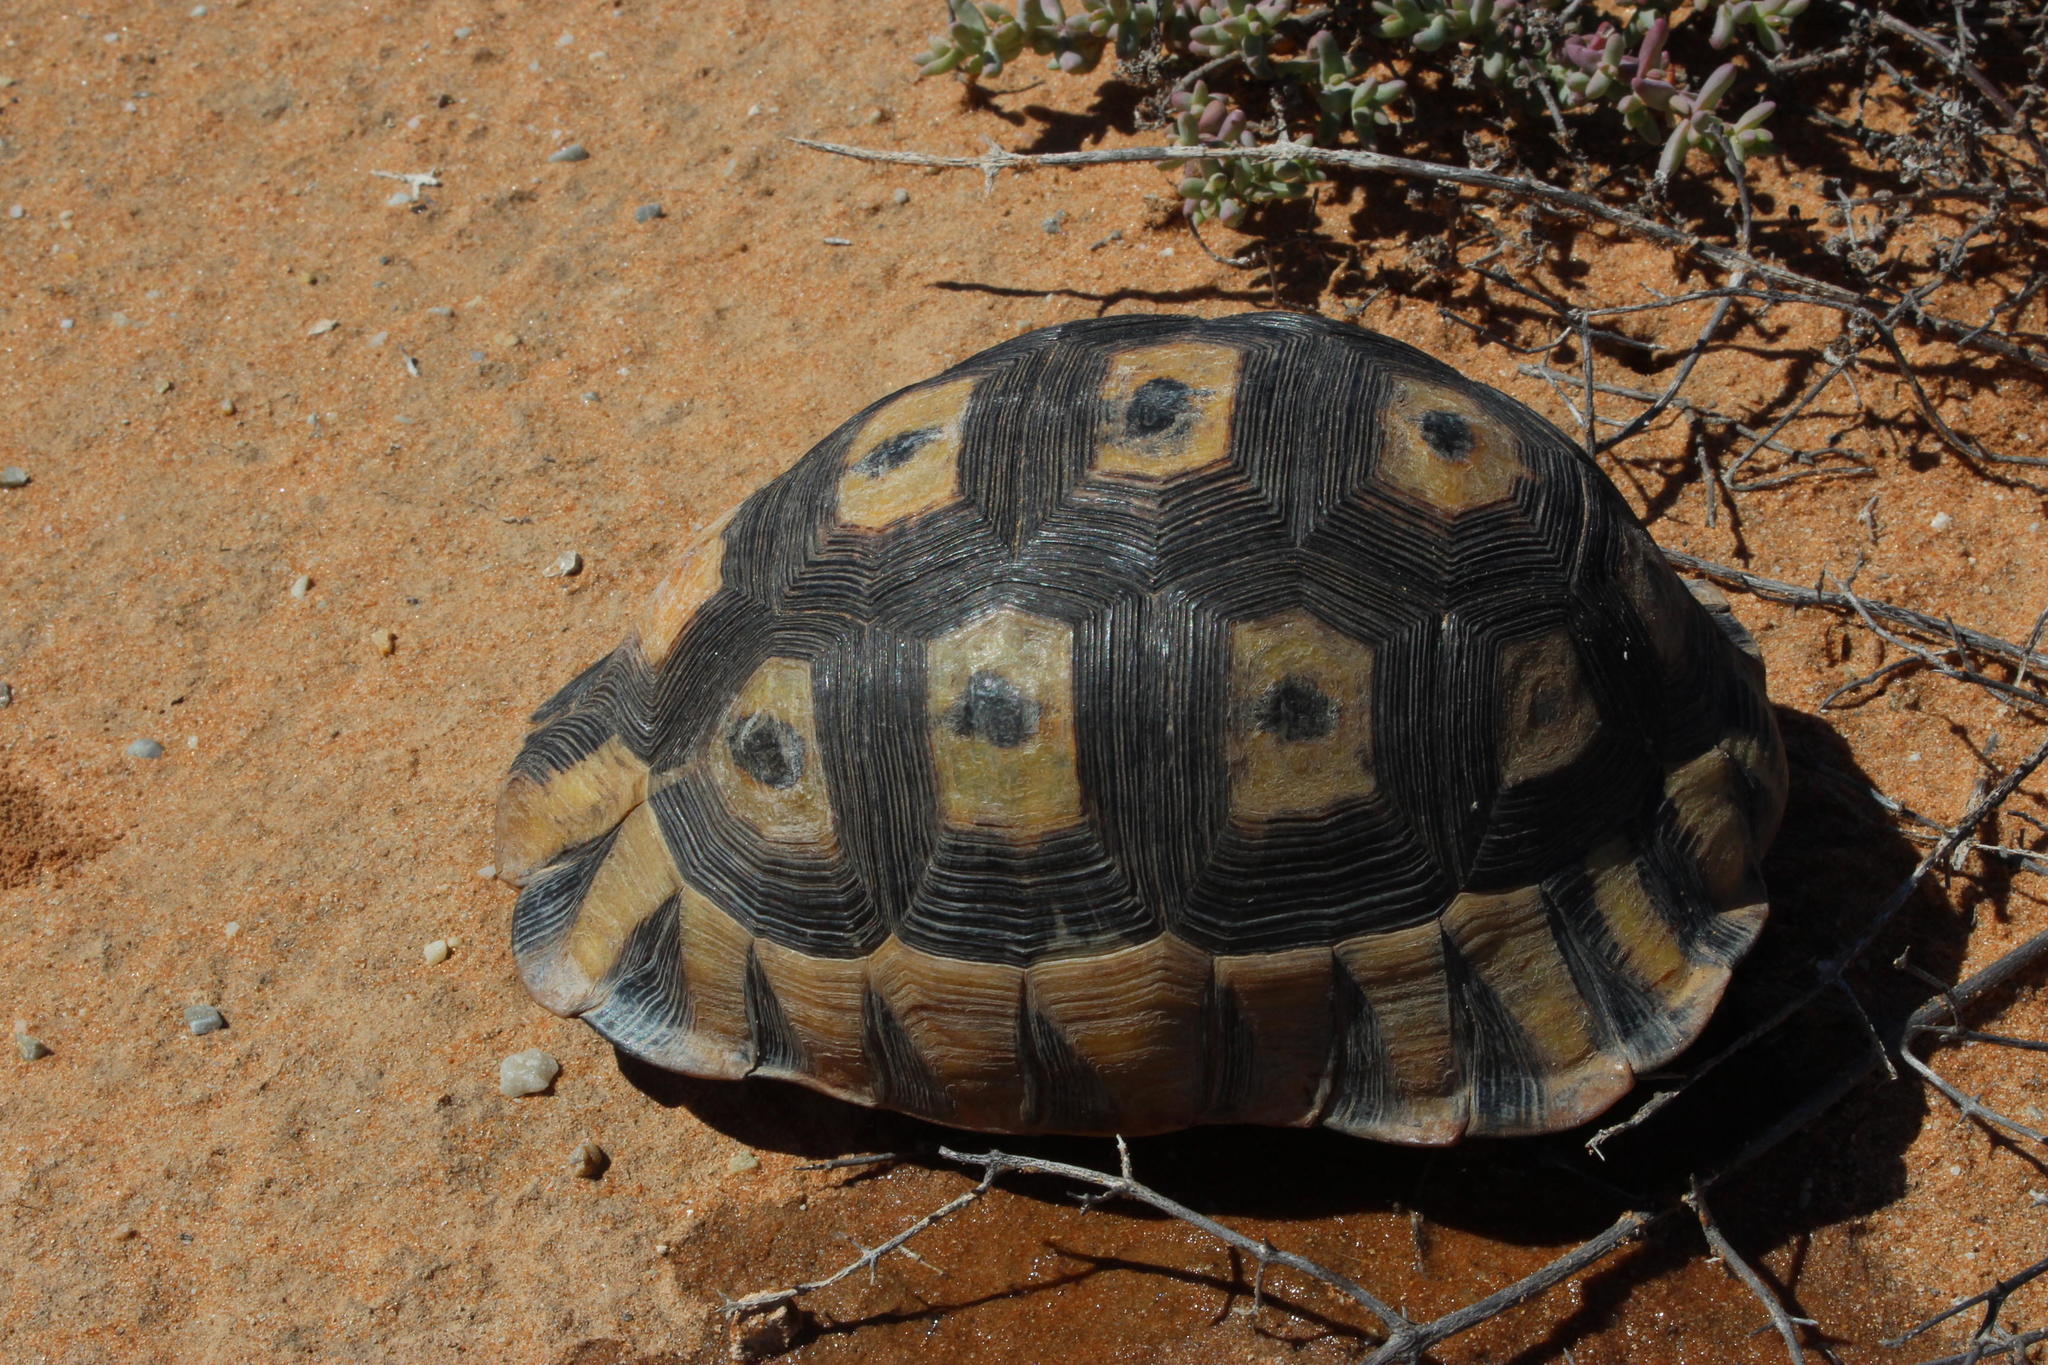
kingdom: Animalia
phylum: Chordata
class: Testudines
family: Testudinidae
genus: Chersina
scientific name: Chersina angulata
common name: South african bowsprit tortoise
